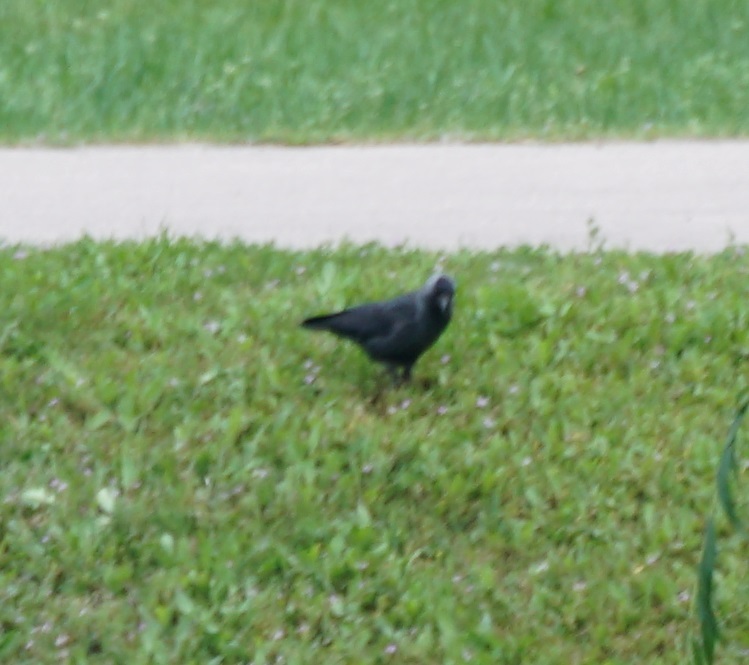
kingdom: Animalia
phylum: Chordata
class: Aves
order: Passeriformes
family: Corvidae
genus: Coloeus
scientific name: Coloeus monedula
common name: Western jackdaw
